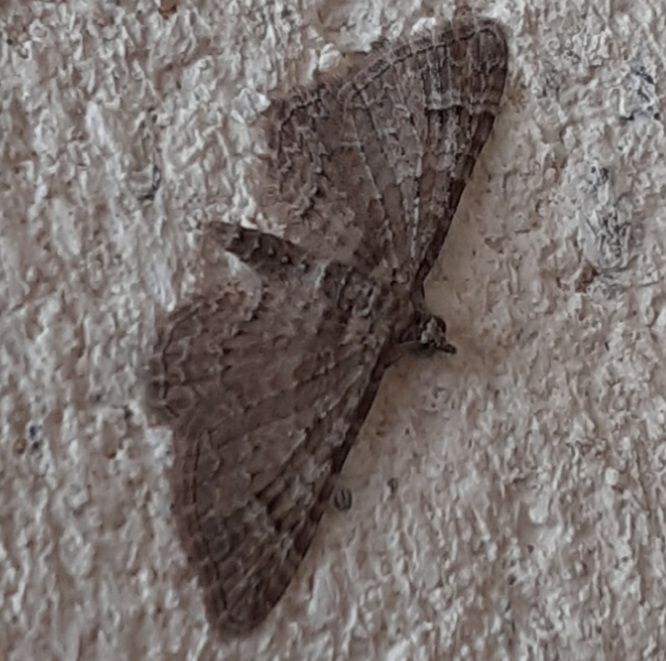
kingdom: Animalia
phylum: Arthropoda
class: Insecta
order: Lepidoptera
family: Geometridae
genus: Gymnoscelis
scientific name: Gymnoscelis rufifasciata
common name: Double-striped pug
